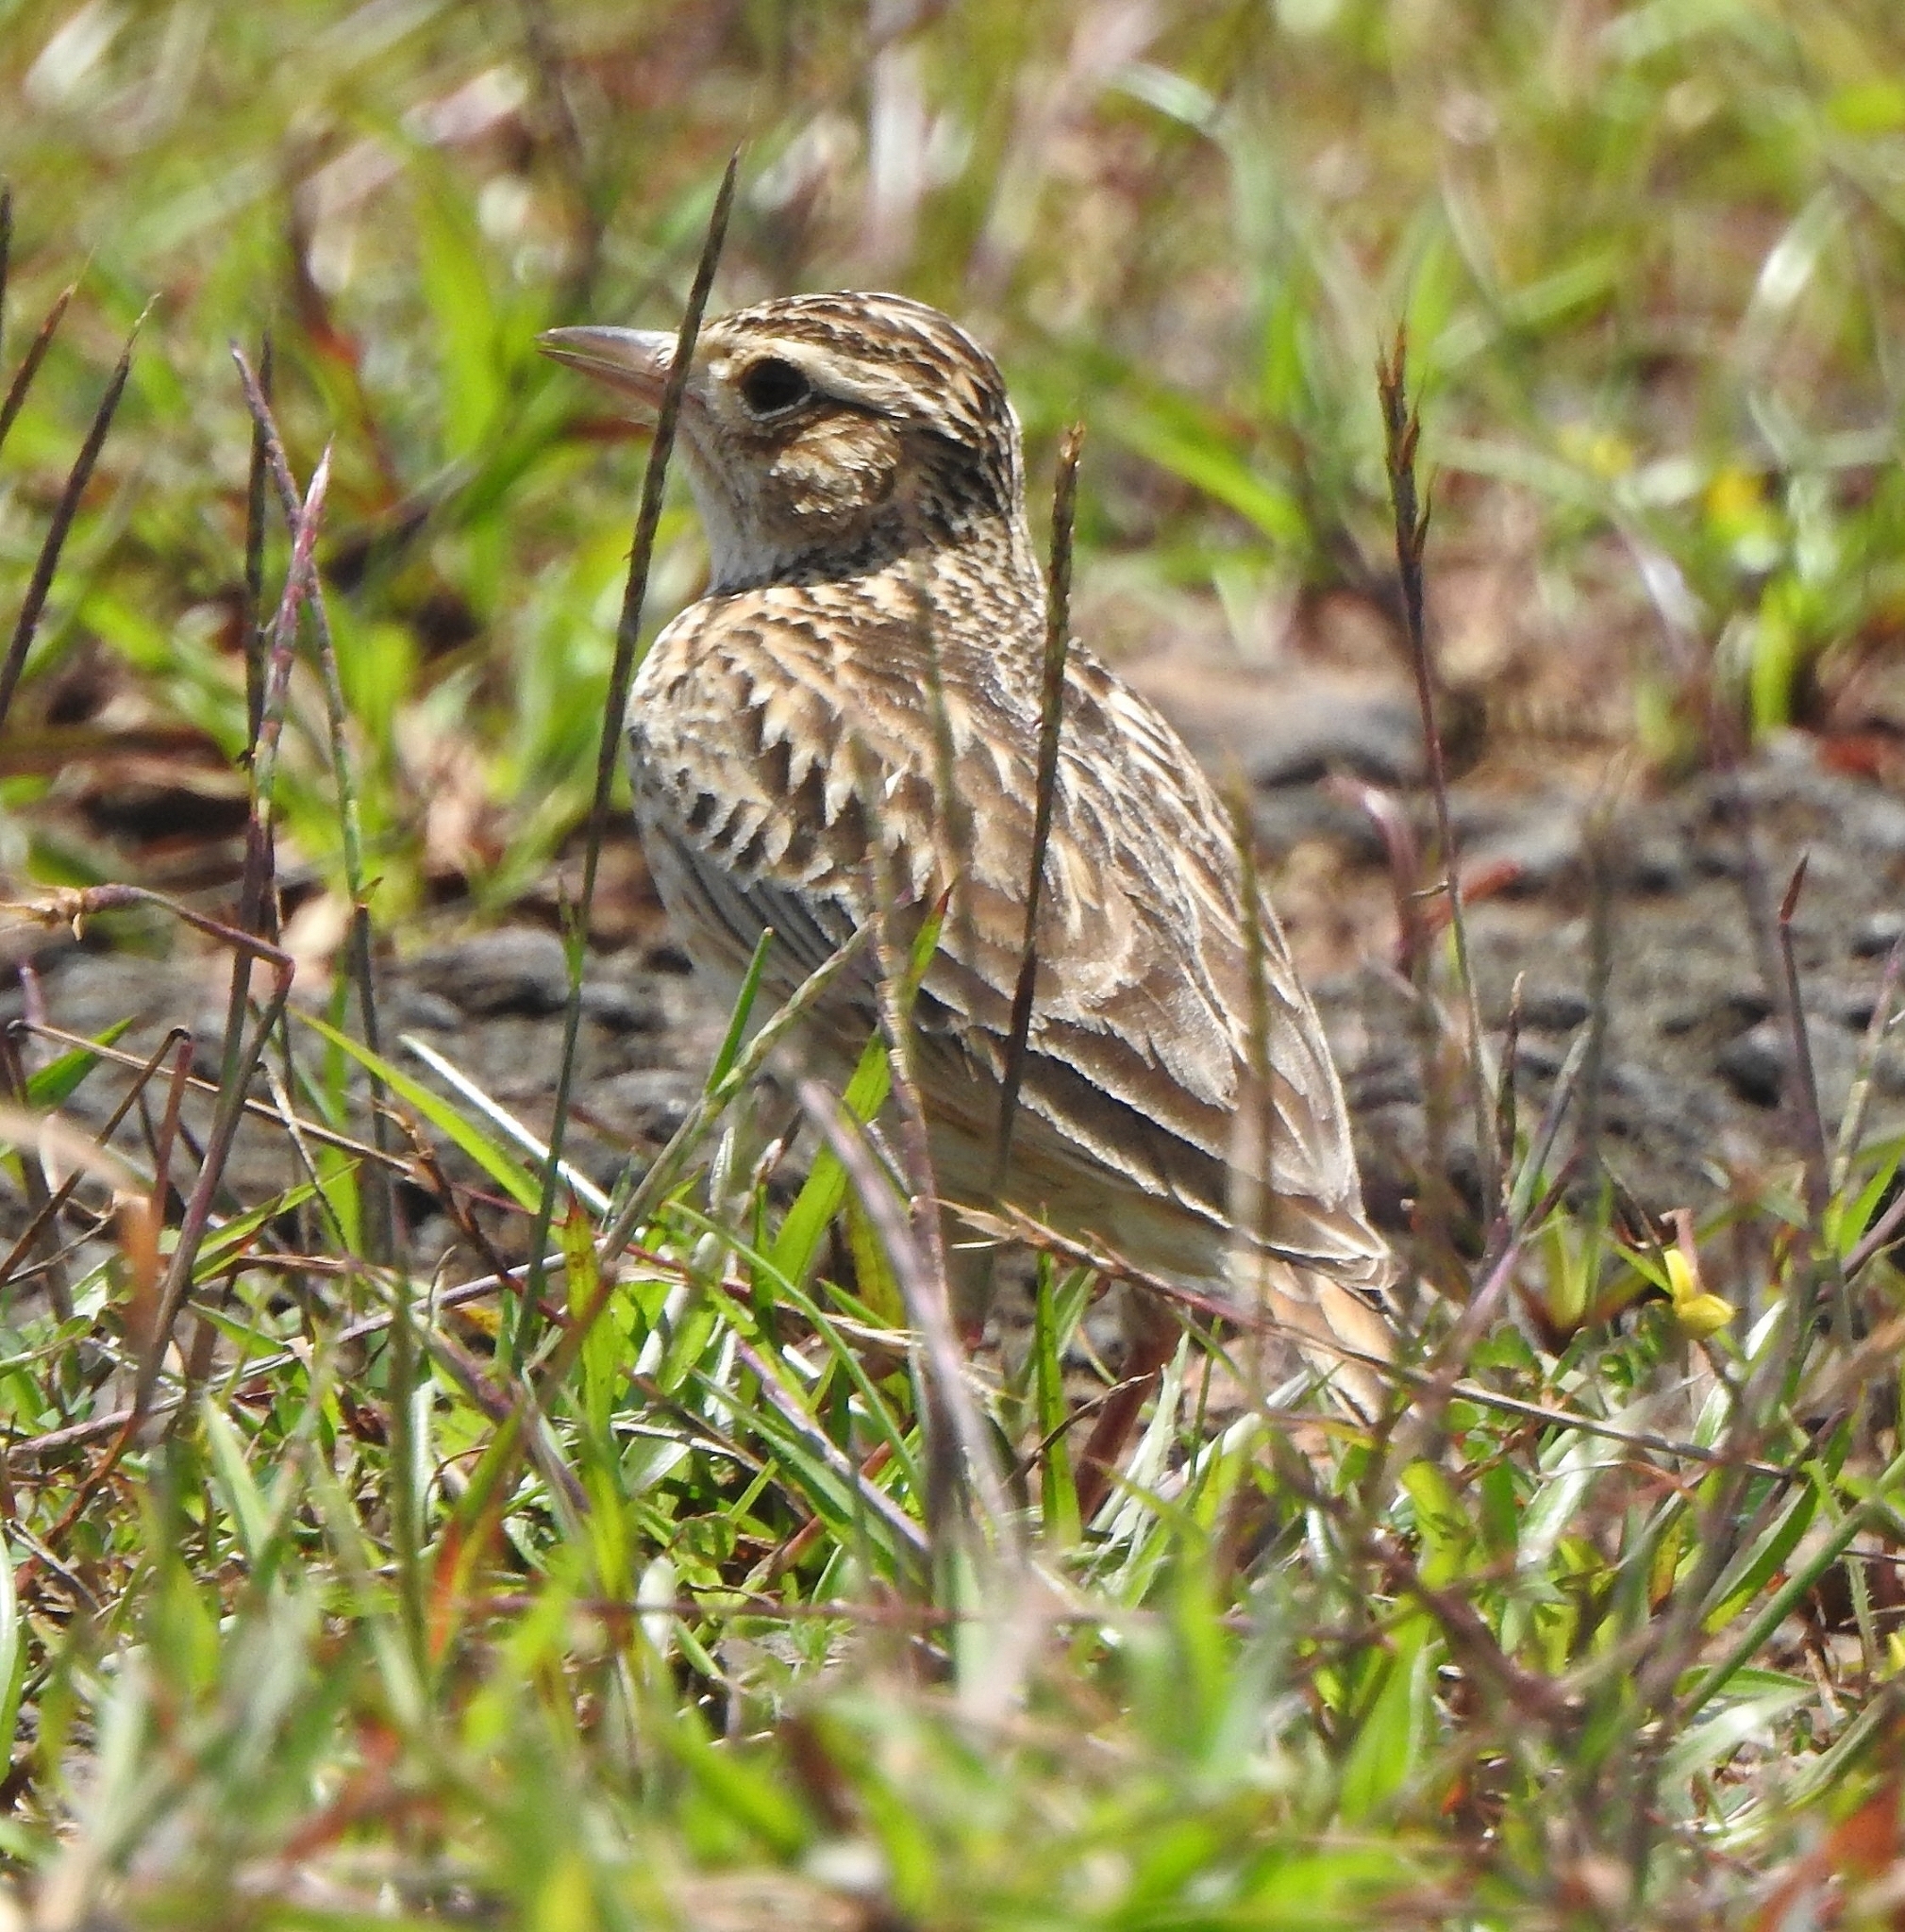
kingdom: Animalia
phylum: Chordata
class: Aves
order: Passeriformes
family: Alaudidae
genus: Alauda
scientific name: Alauda gulgula
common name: Oriental skylark
